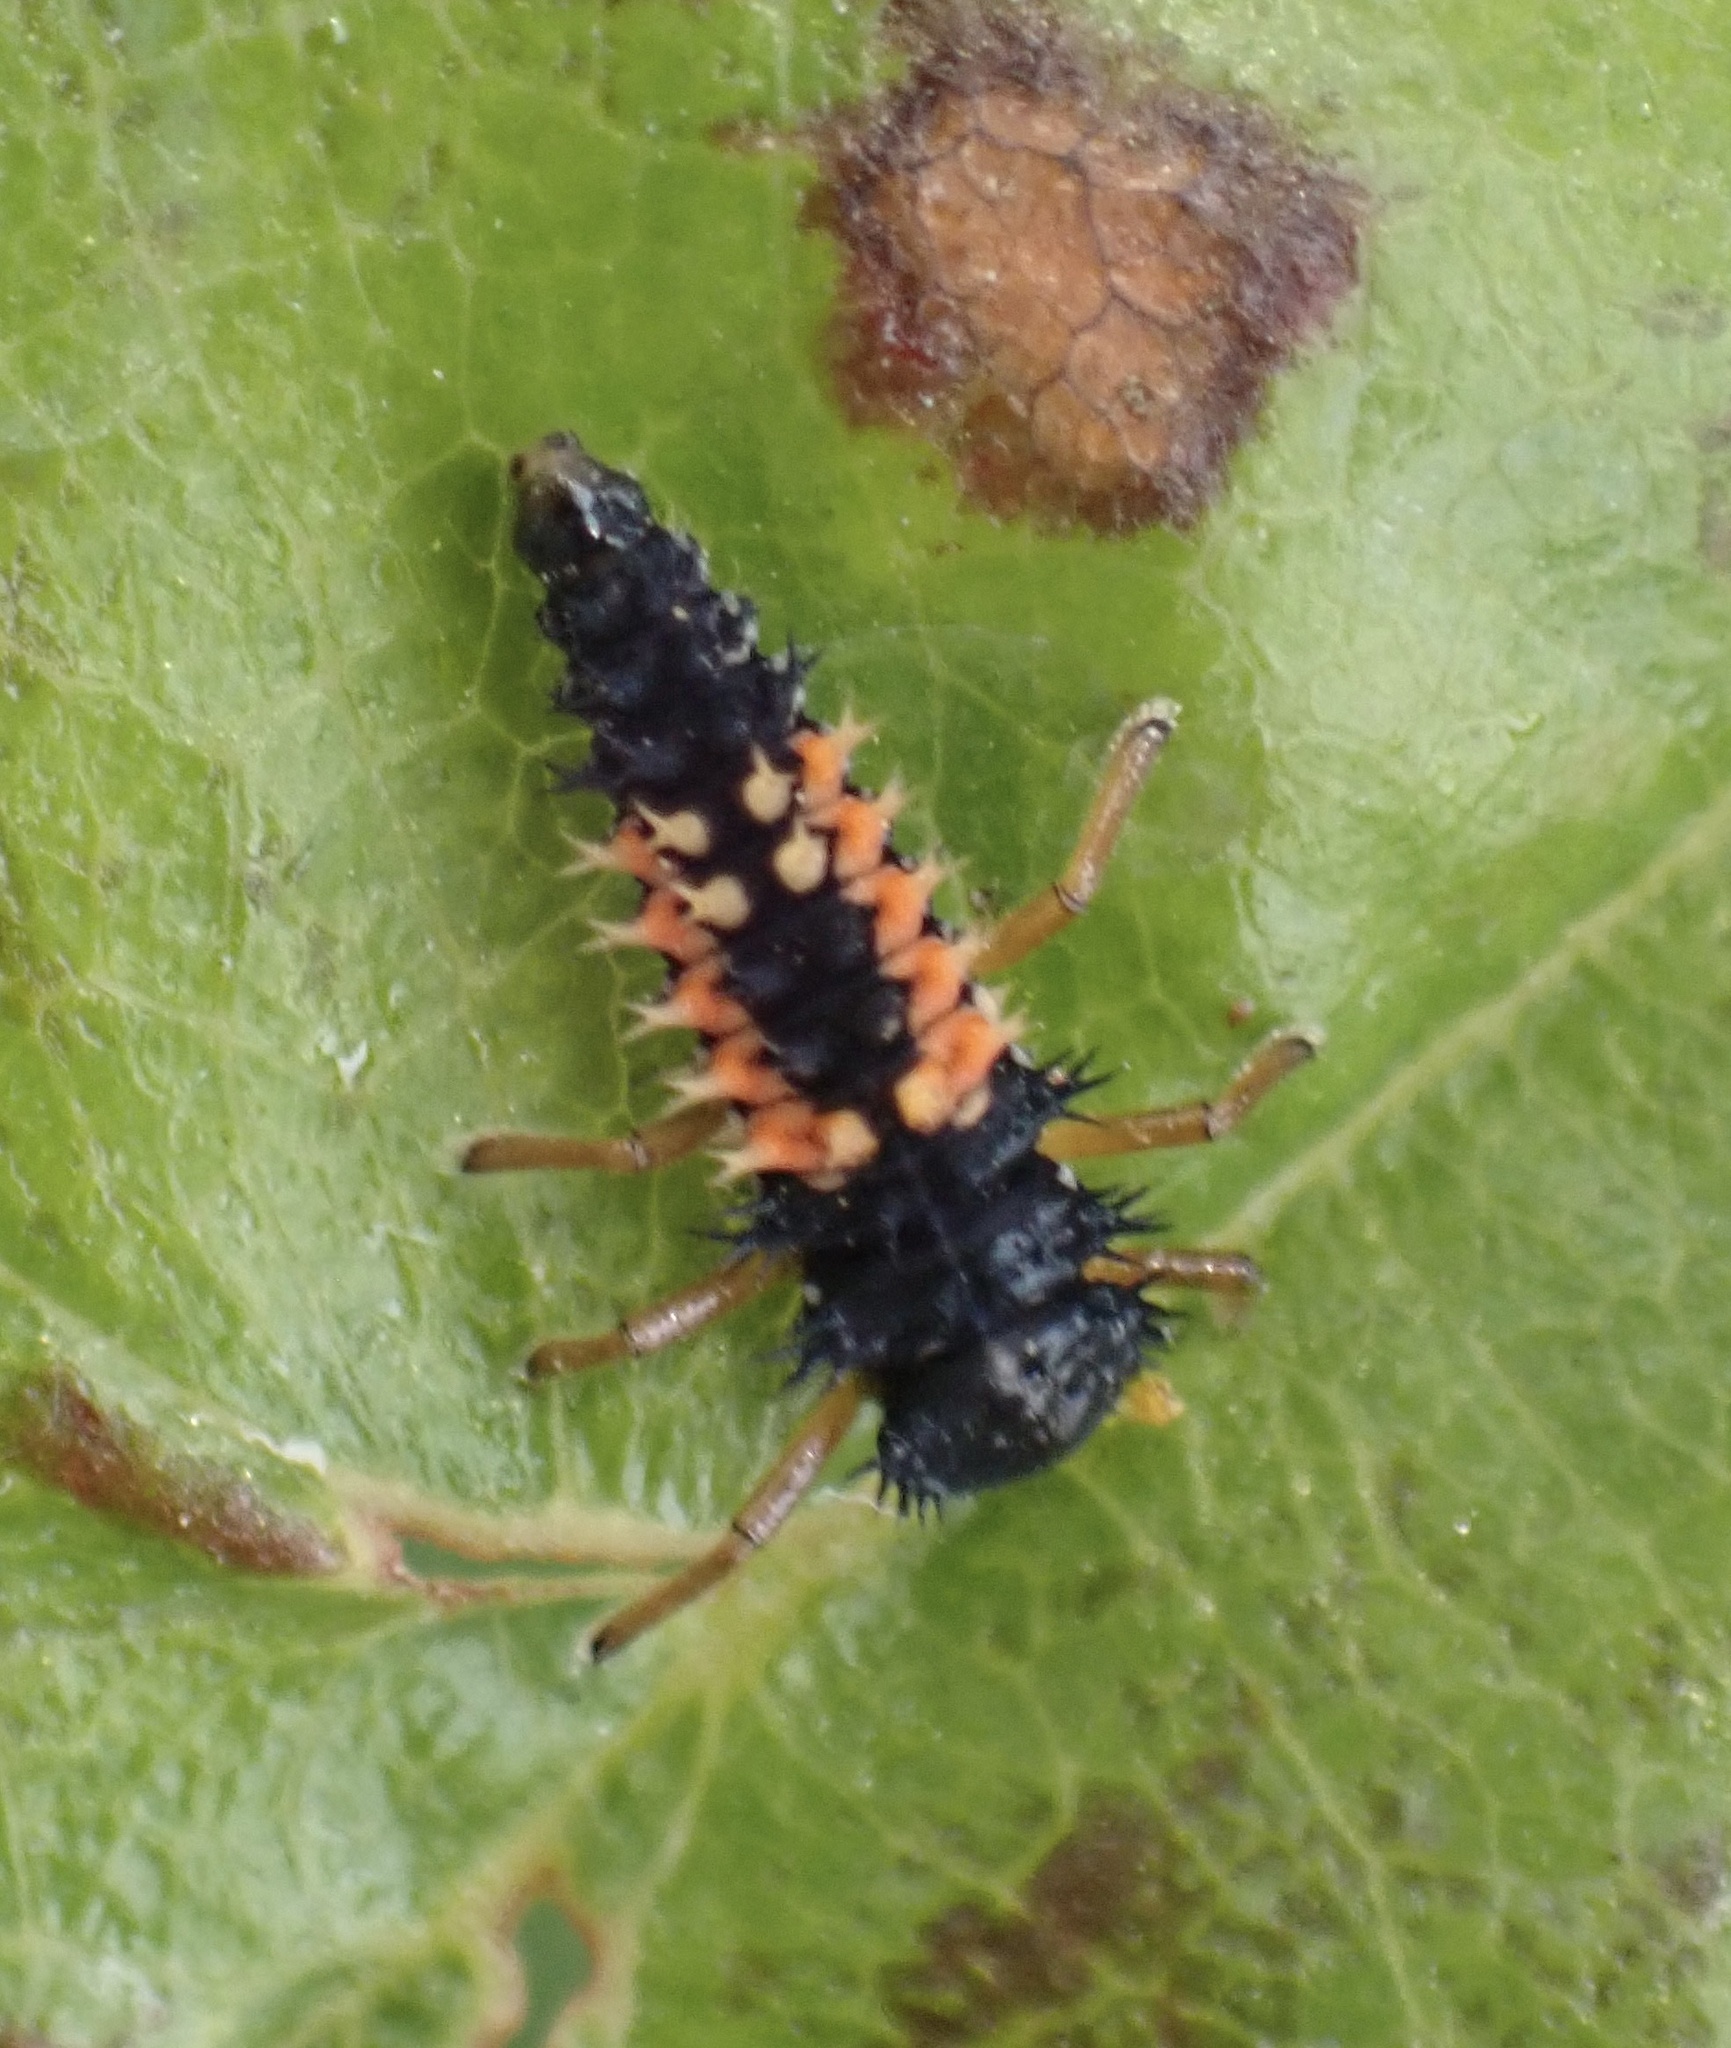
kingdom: Animalia
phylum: Arthropoda
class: Insecta
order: Coleoptera
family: Coccinellidae
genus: Harmonia
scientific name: Harmonia axyridis
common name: Harlequin ladybird
